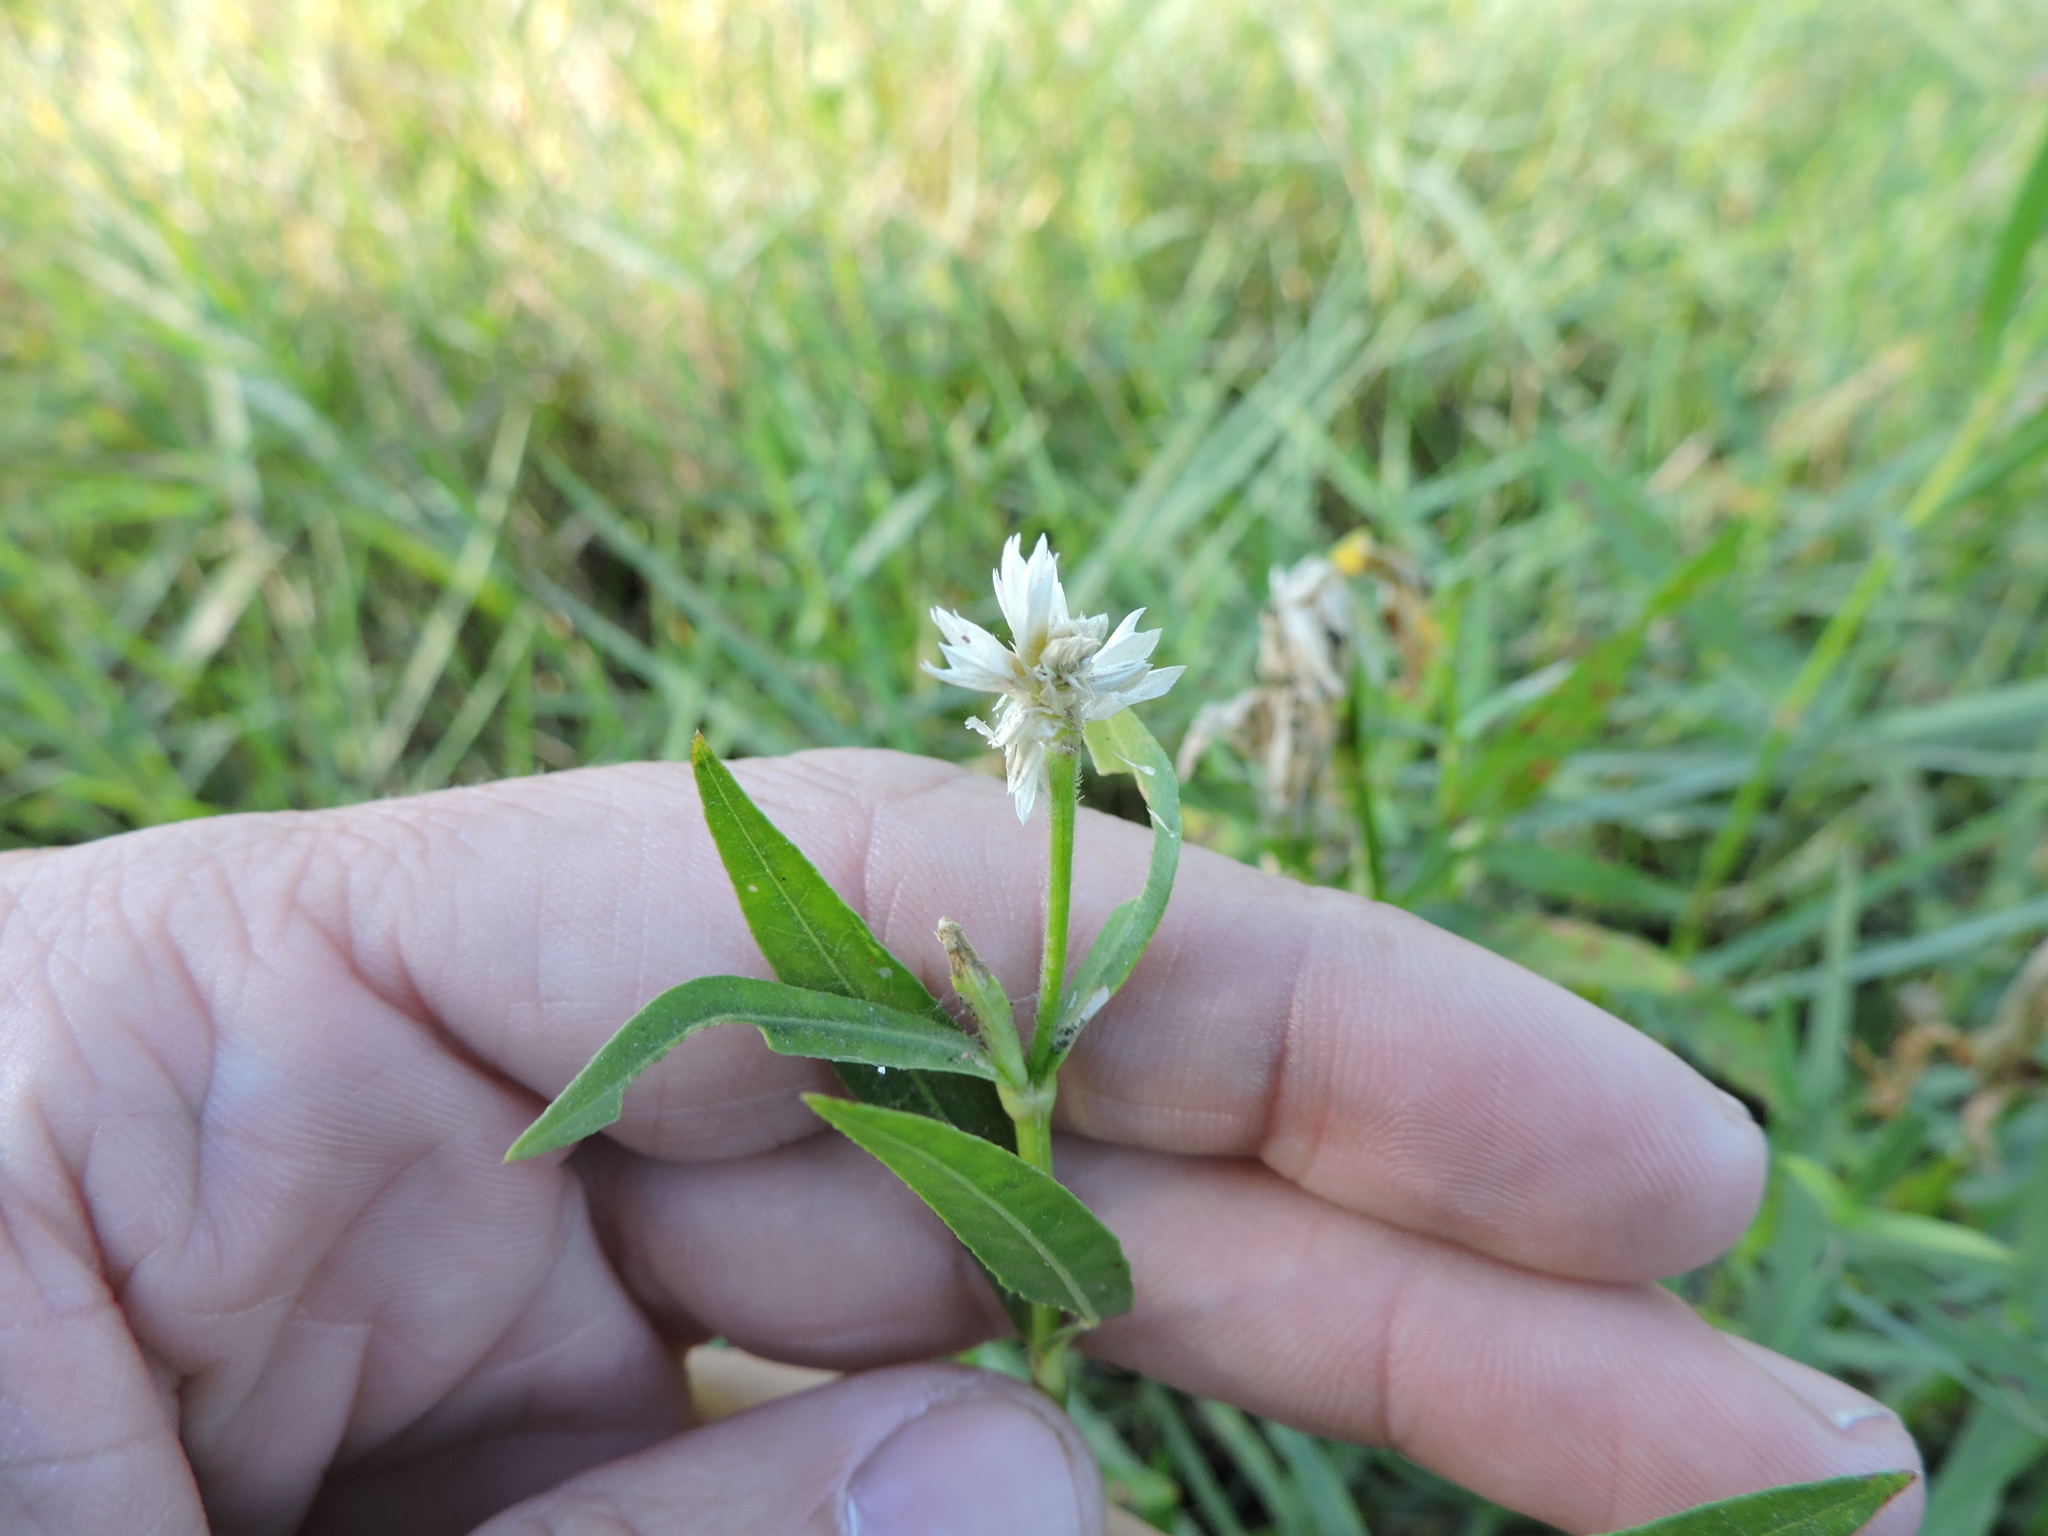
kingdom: Plantae
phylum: Tracheophyta
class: Magnoliopsida
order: Caryophyllales
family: Amaranthaceae
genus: Alternanthera
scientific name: Alternanthera philoxeroides
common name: Alligatorweed
